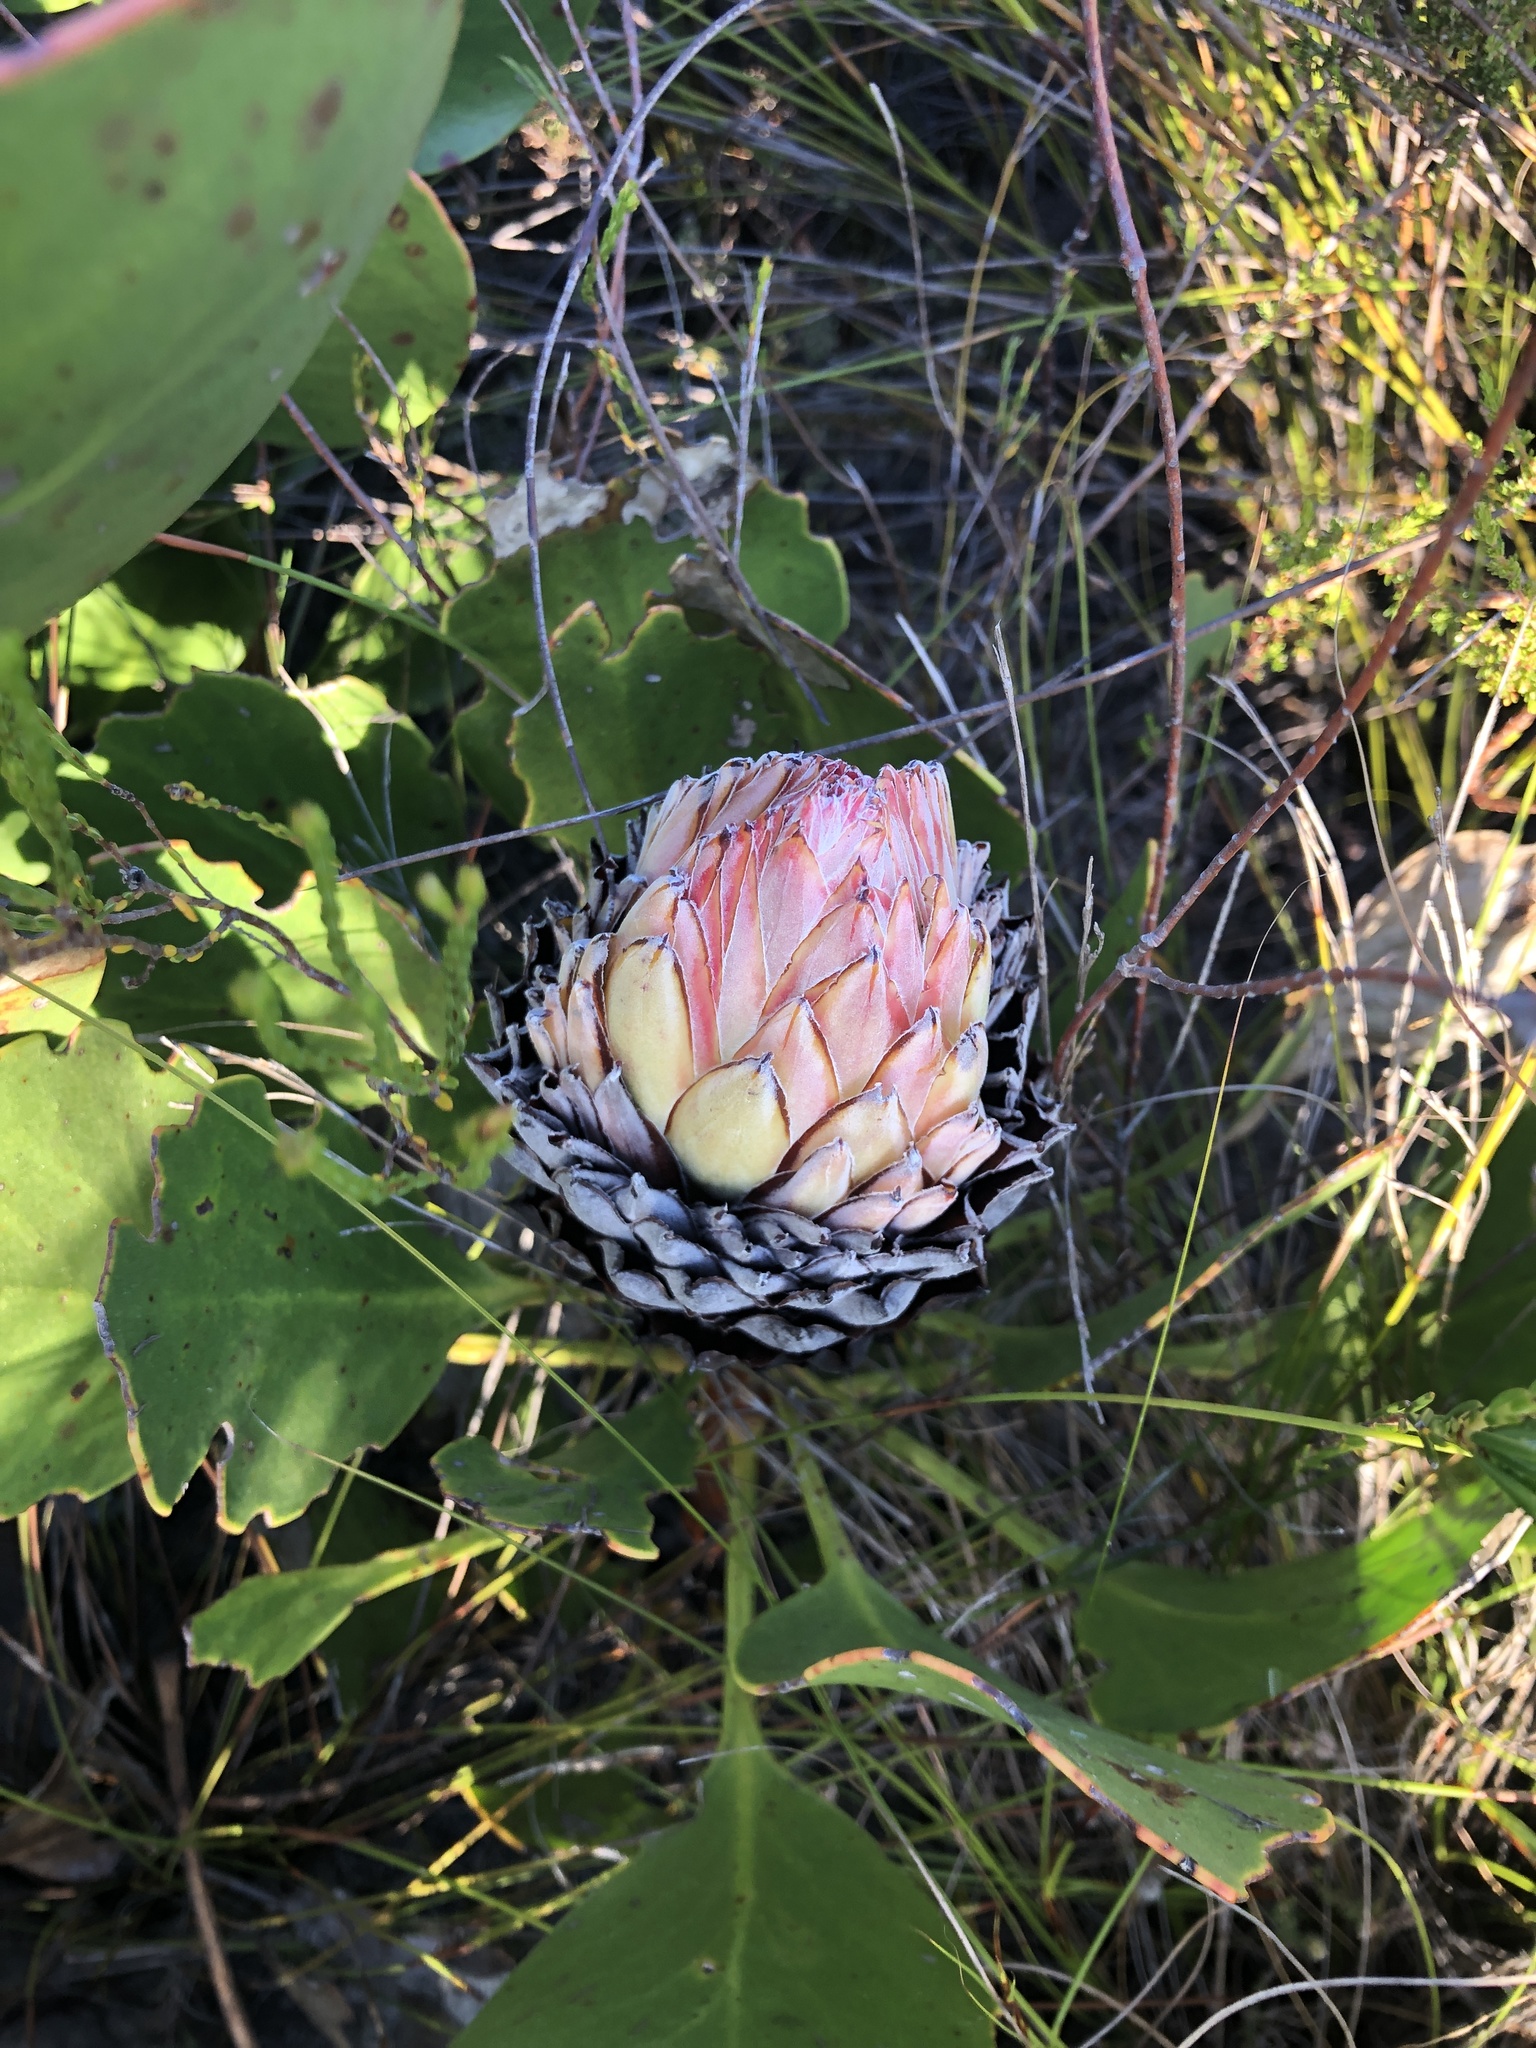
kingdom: Plantae
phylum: Tracheophyta
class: Magnoliopsida
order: Proteales
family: Proteaceae
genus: Protea
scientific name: Protea cynaroides
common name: King protea
